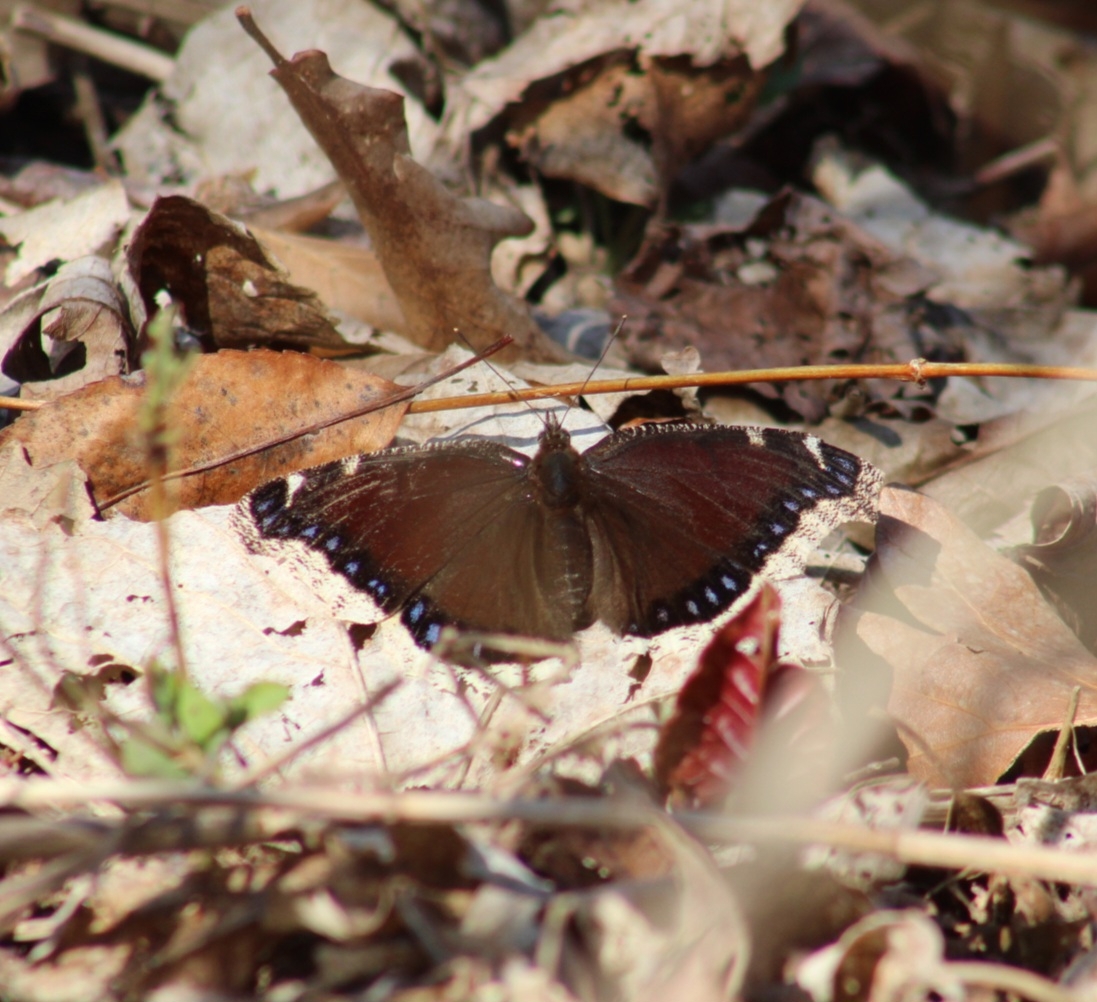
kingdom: Animalia
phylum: Arthropoda
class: Insecta
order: Lepidoptera
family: Nymphalidae
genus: Nymphalis
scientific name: Nymphalis antiopa
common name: Camberwell beauty
